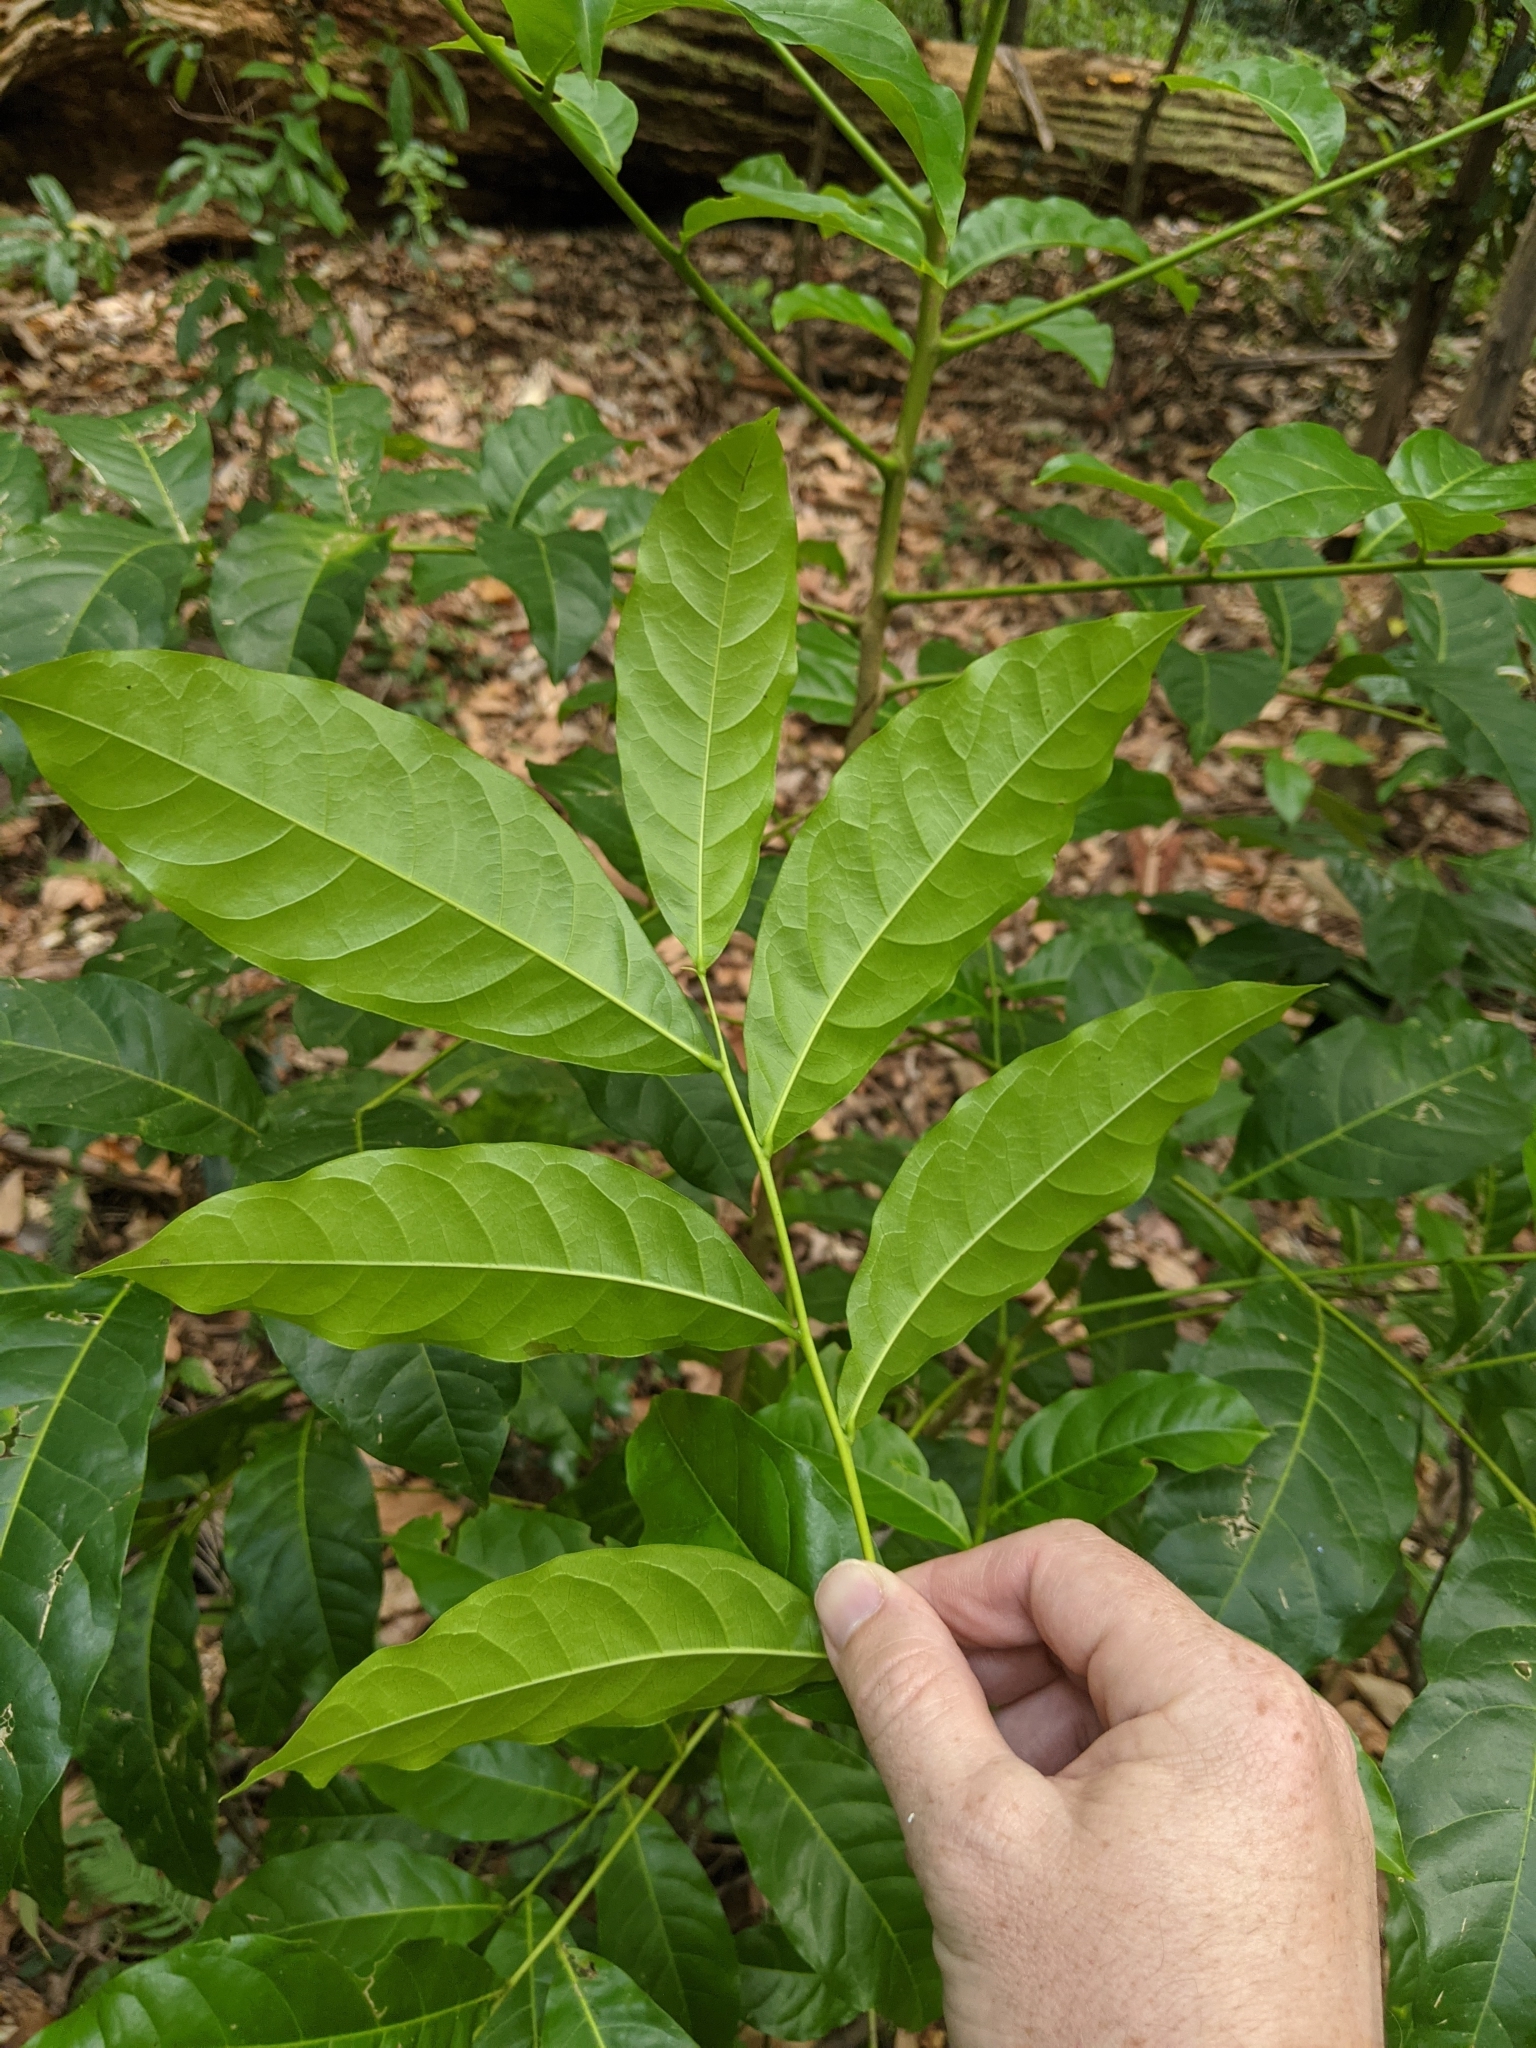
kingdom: Plantae
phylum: Tracheophyta
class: Magnoliopsida
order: Sapindales
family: Sapindaceae
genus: Harpullia
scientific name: Harpullia pendula
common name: Moreton bay tulipwood
